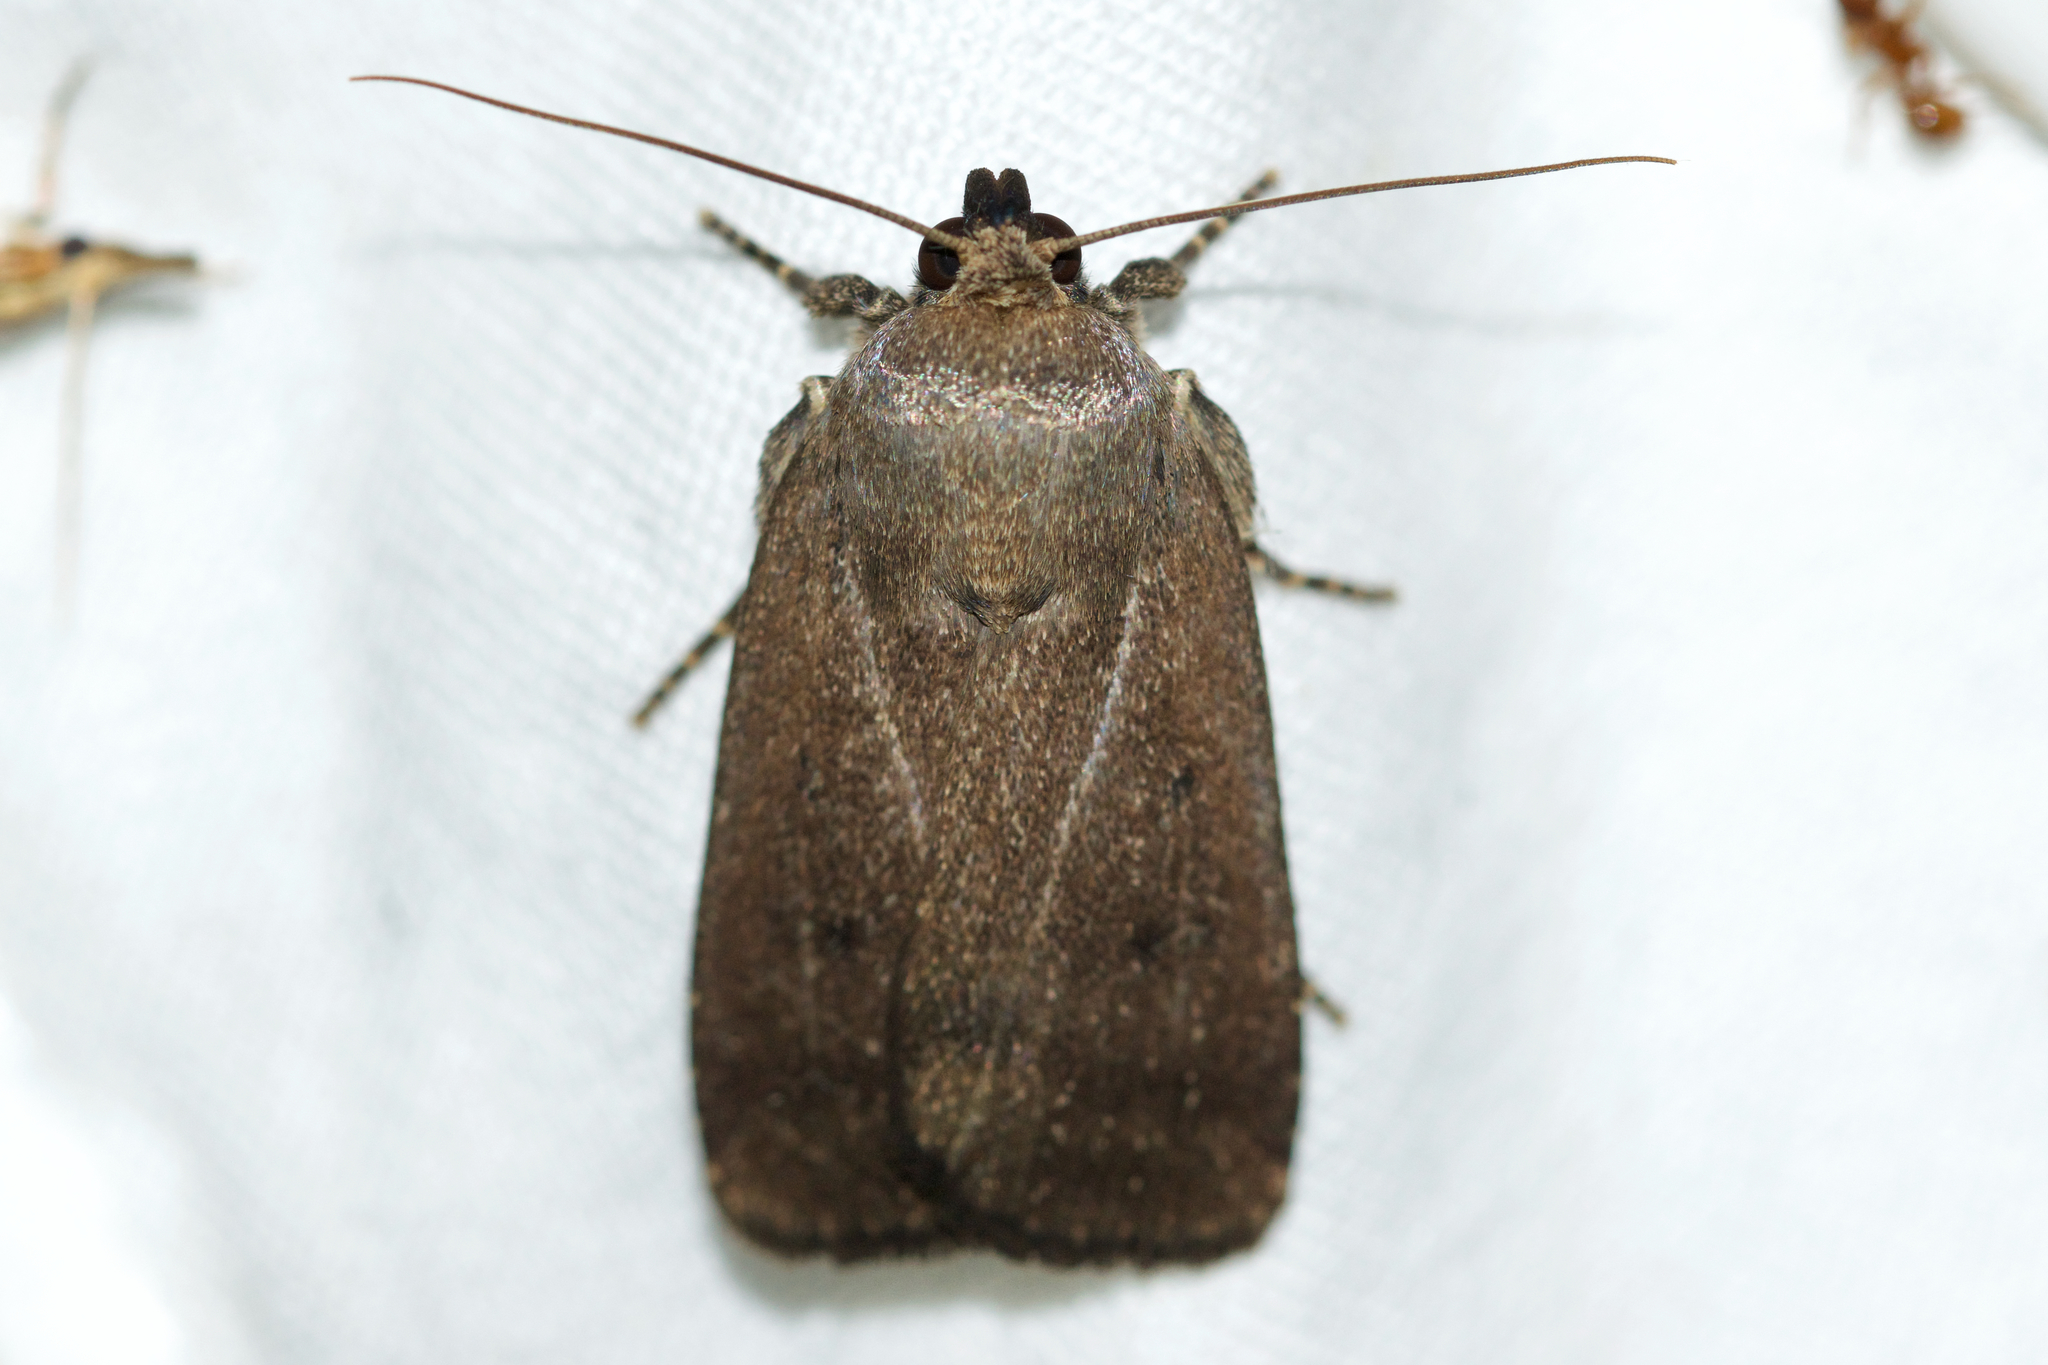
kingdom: Animalia
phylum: Arthropoda
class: Insecta
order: Lepidoptera
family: Noctuidae
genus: Amphipyra
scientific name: Amphipyra tragopoginis
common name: Mouse moth
